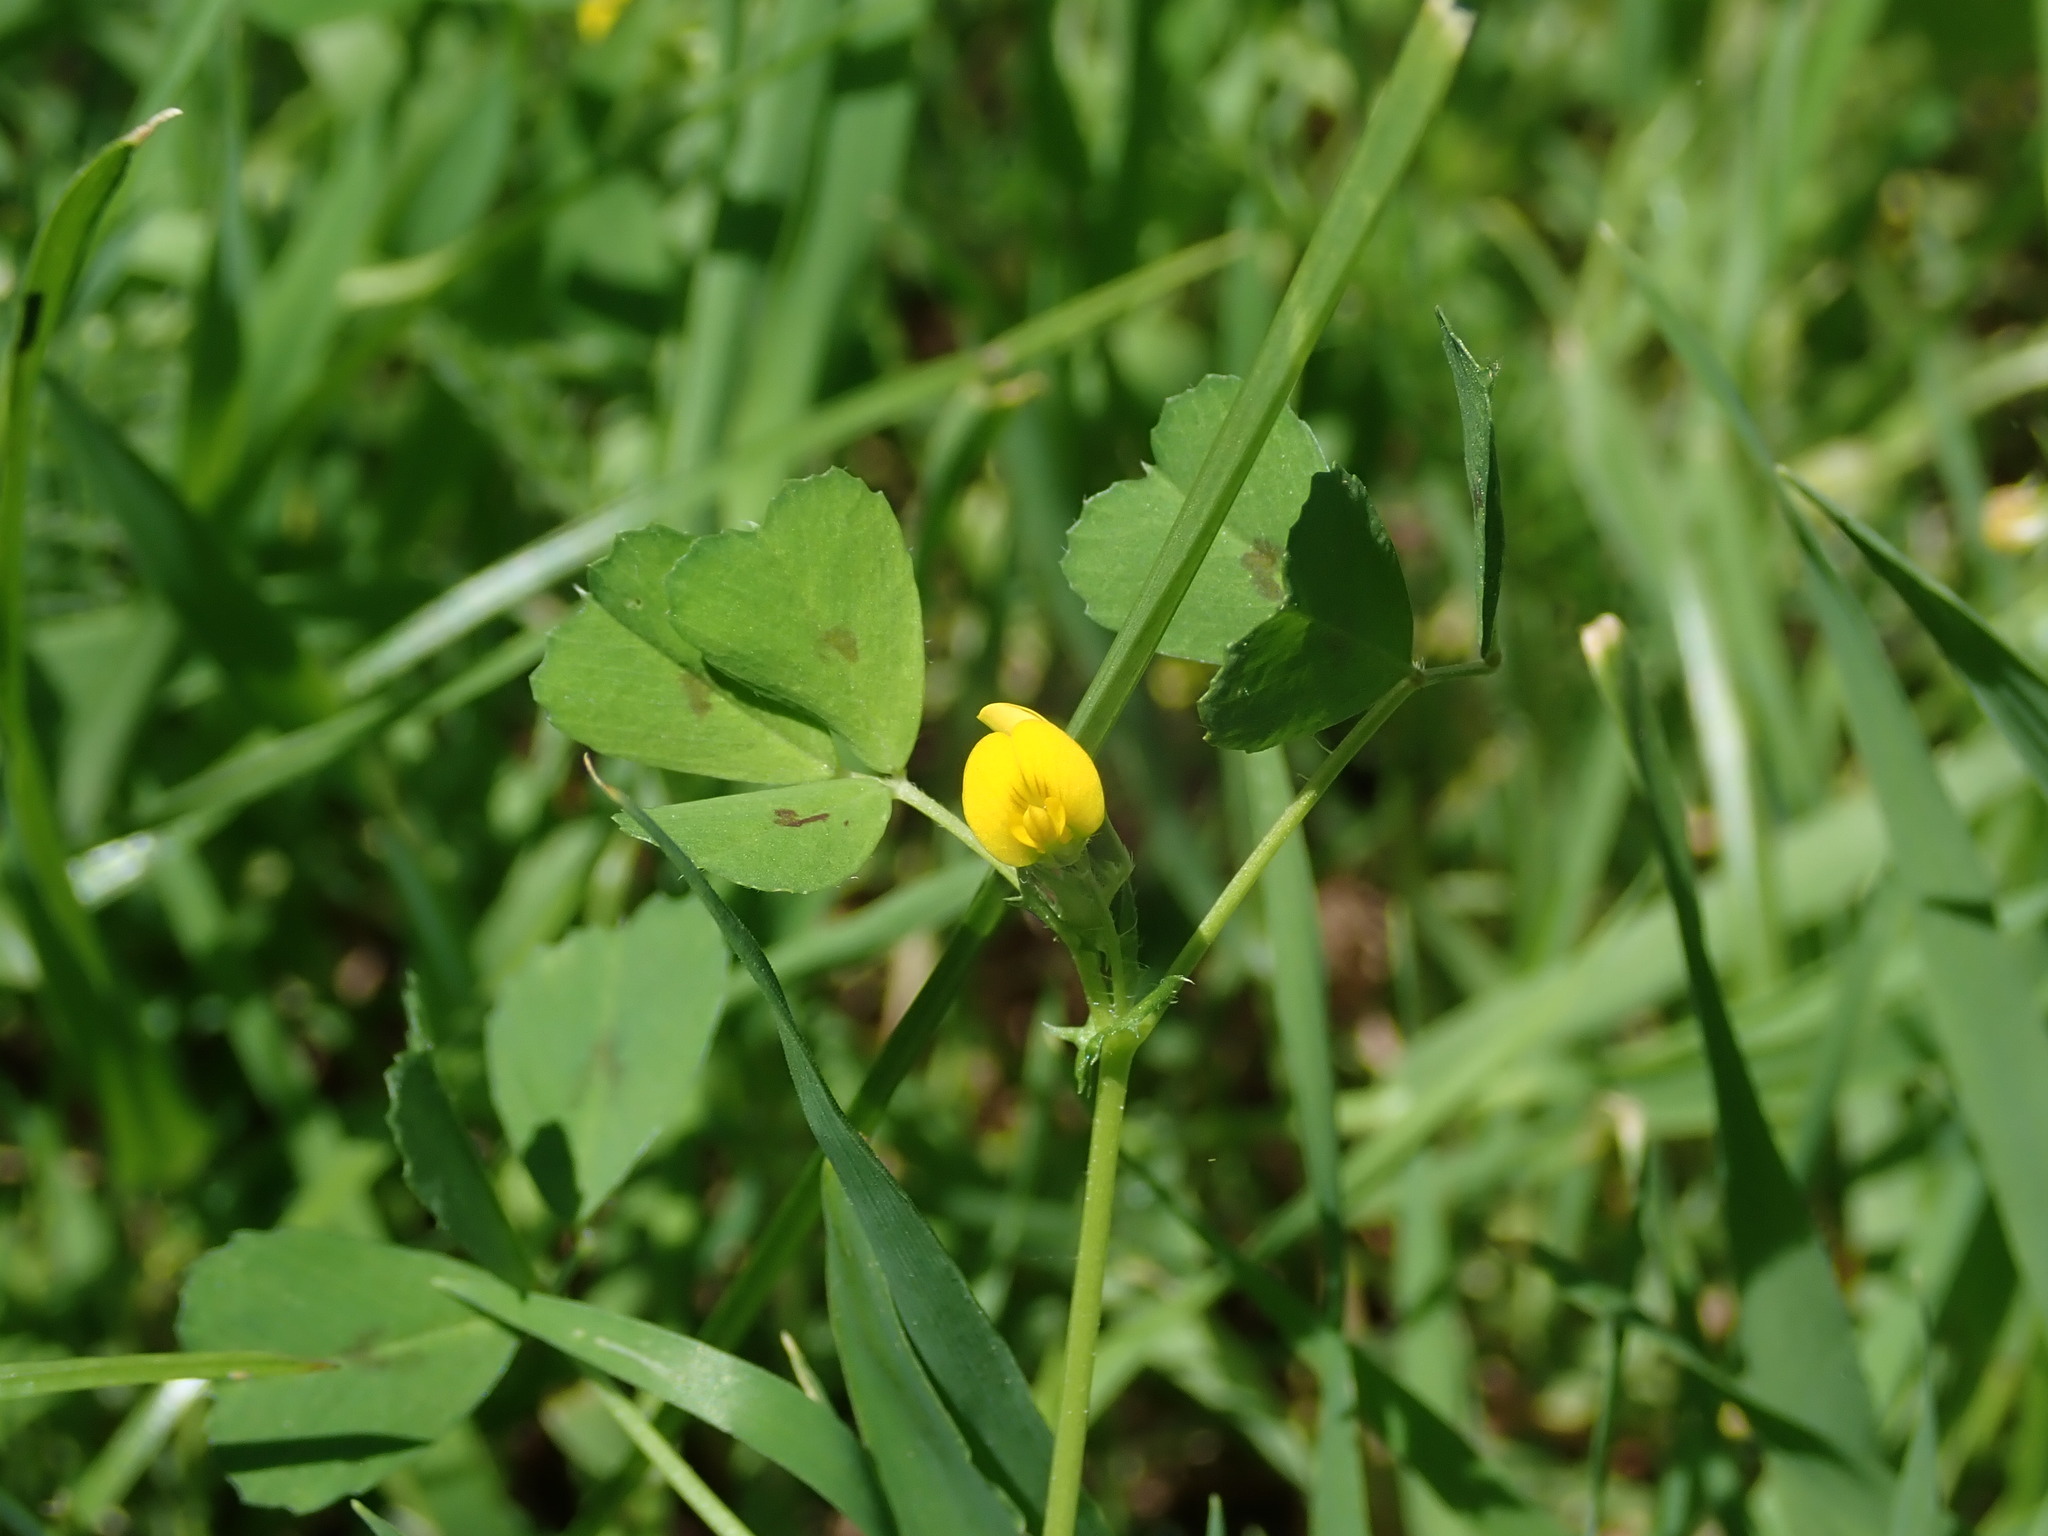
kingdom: Plantae
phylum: Tracheophyta
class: Magnoliopsida
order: Fabales
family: Fabaceae
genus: Medicago
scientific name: Medicago arabica
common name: Spotted medick
